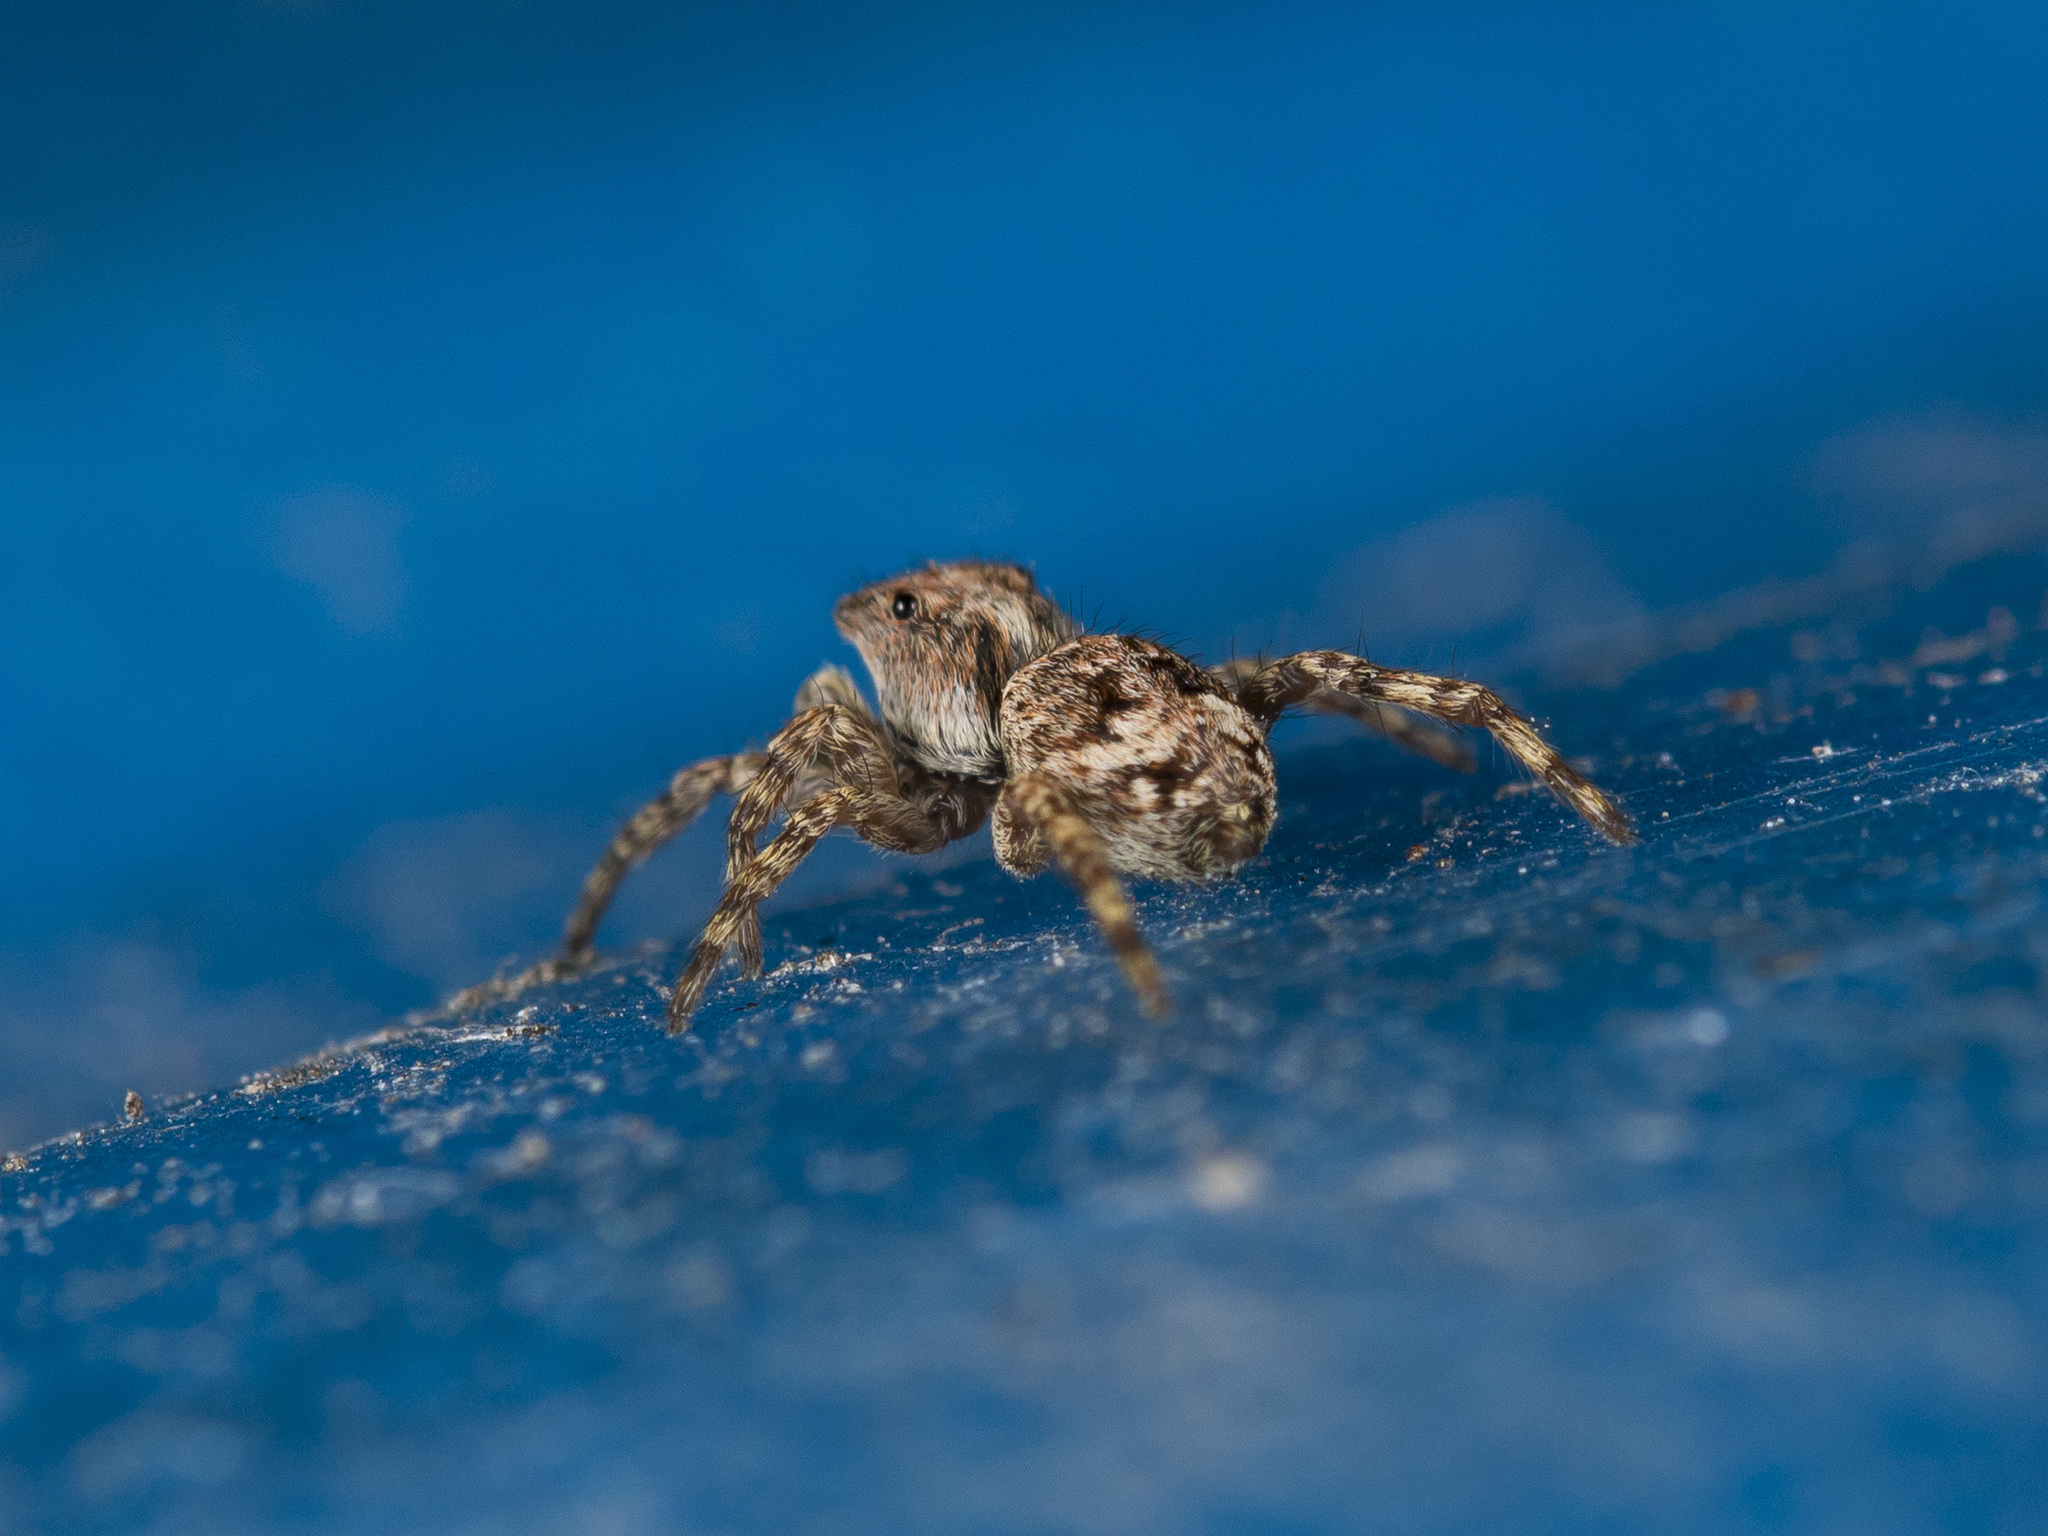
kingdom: Animalia
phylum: Arthropoda
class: Arachnida
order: Araneae
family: Salticidae
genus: Attulus
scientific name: Attulus fasciger
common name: Asiatic wall jumping spider
